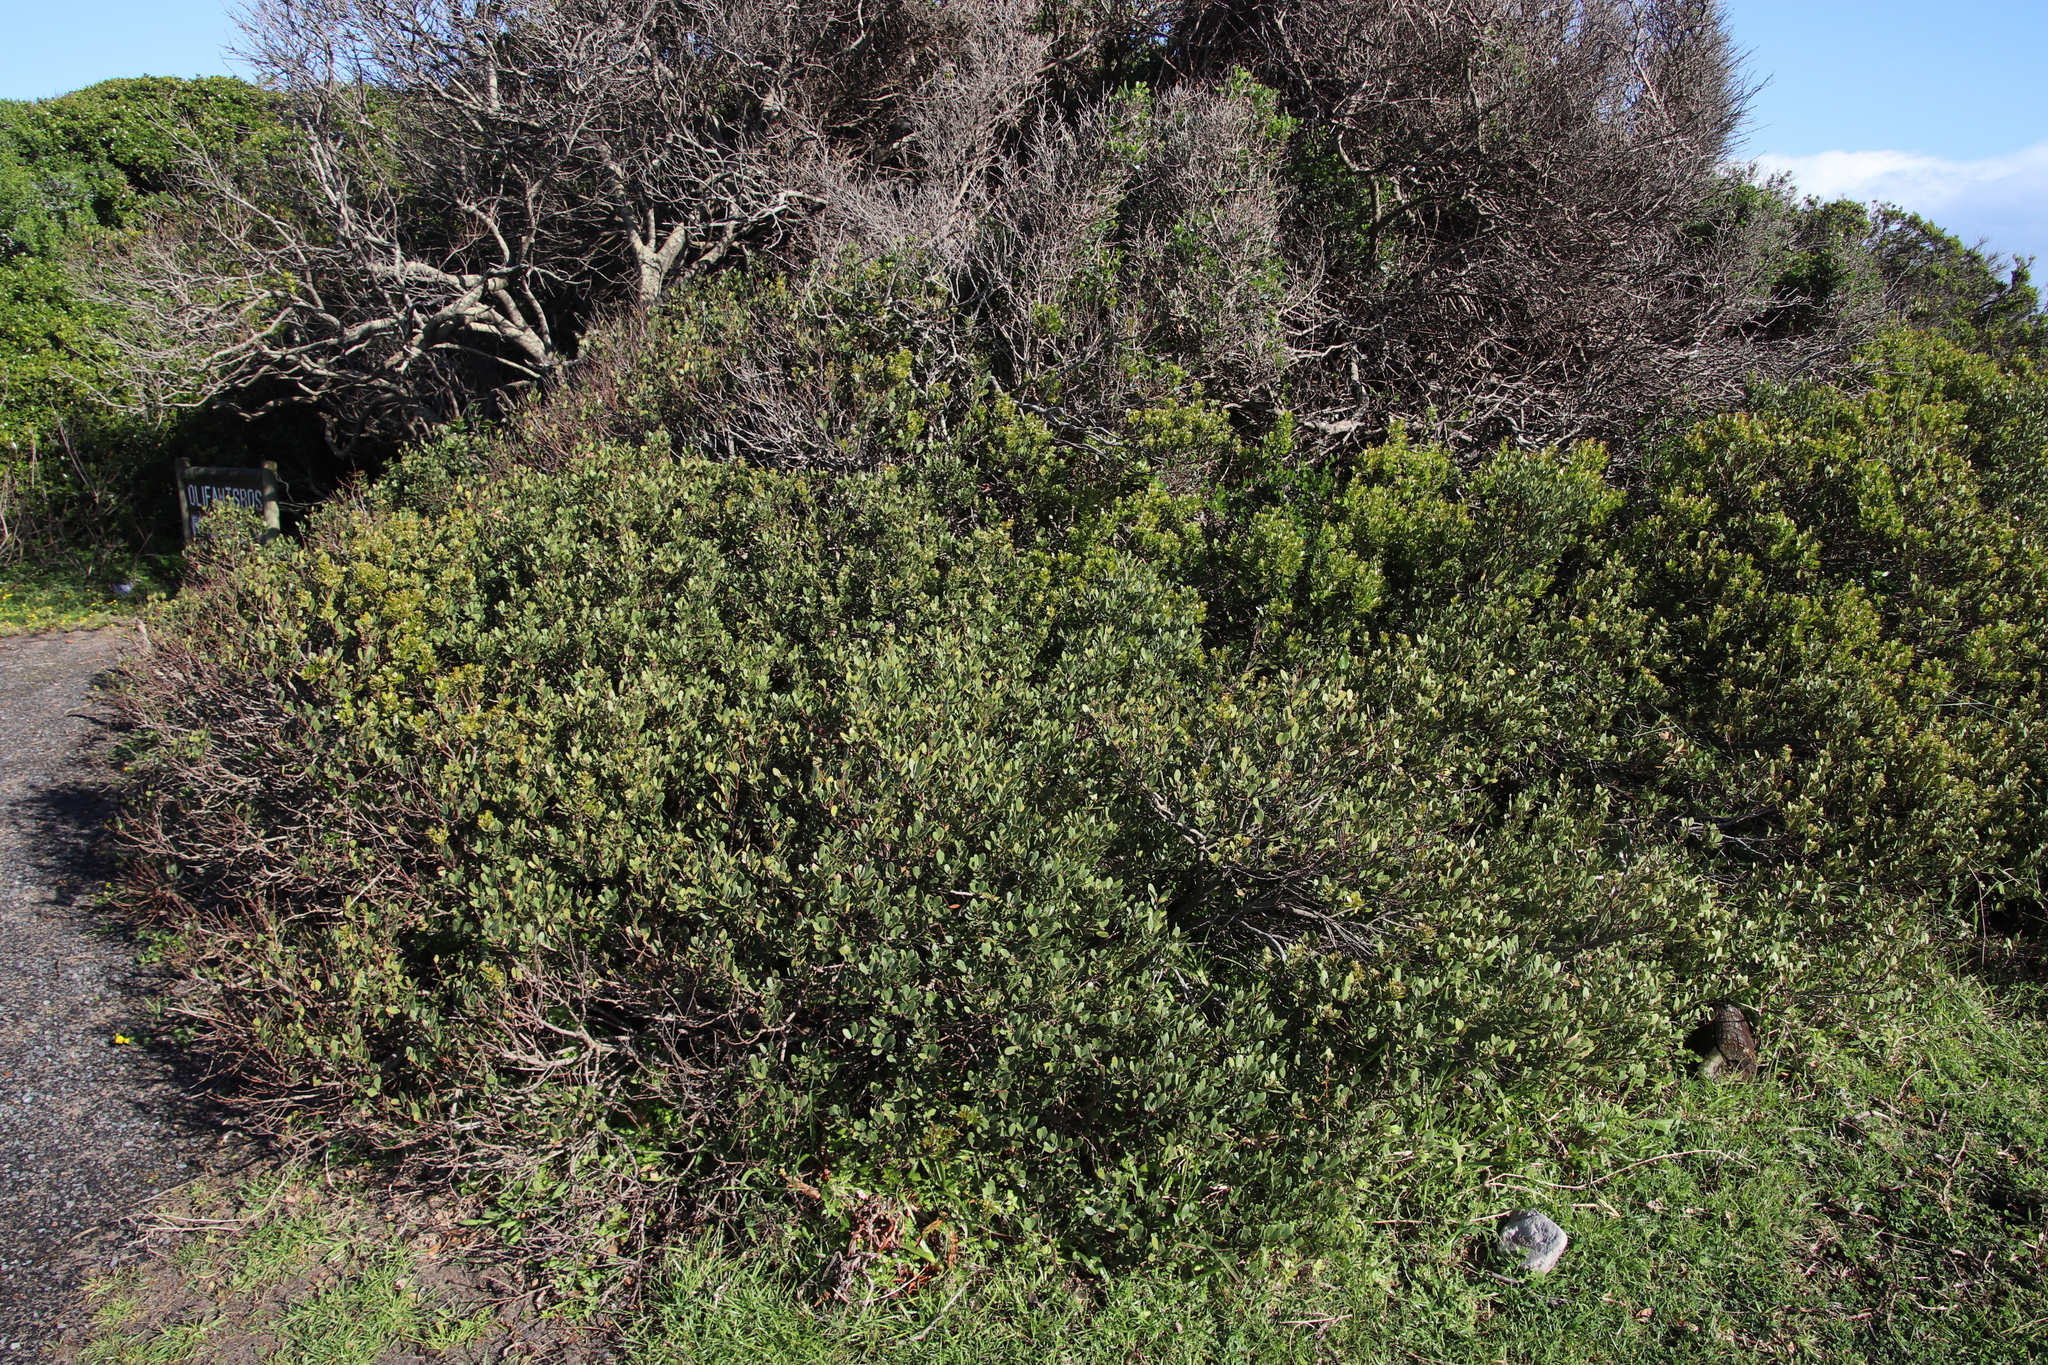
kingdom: Plantae
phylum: Tracheophyta
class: Magnoliopsida
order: Ericales
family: Ebenaceae
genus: Euclea
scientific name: Euclea racemosa
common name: Dune guarri
